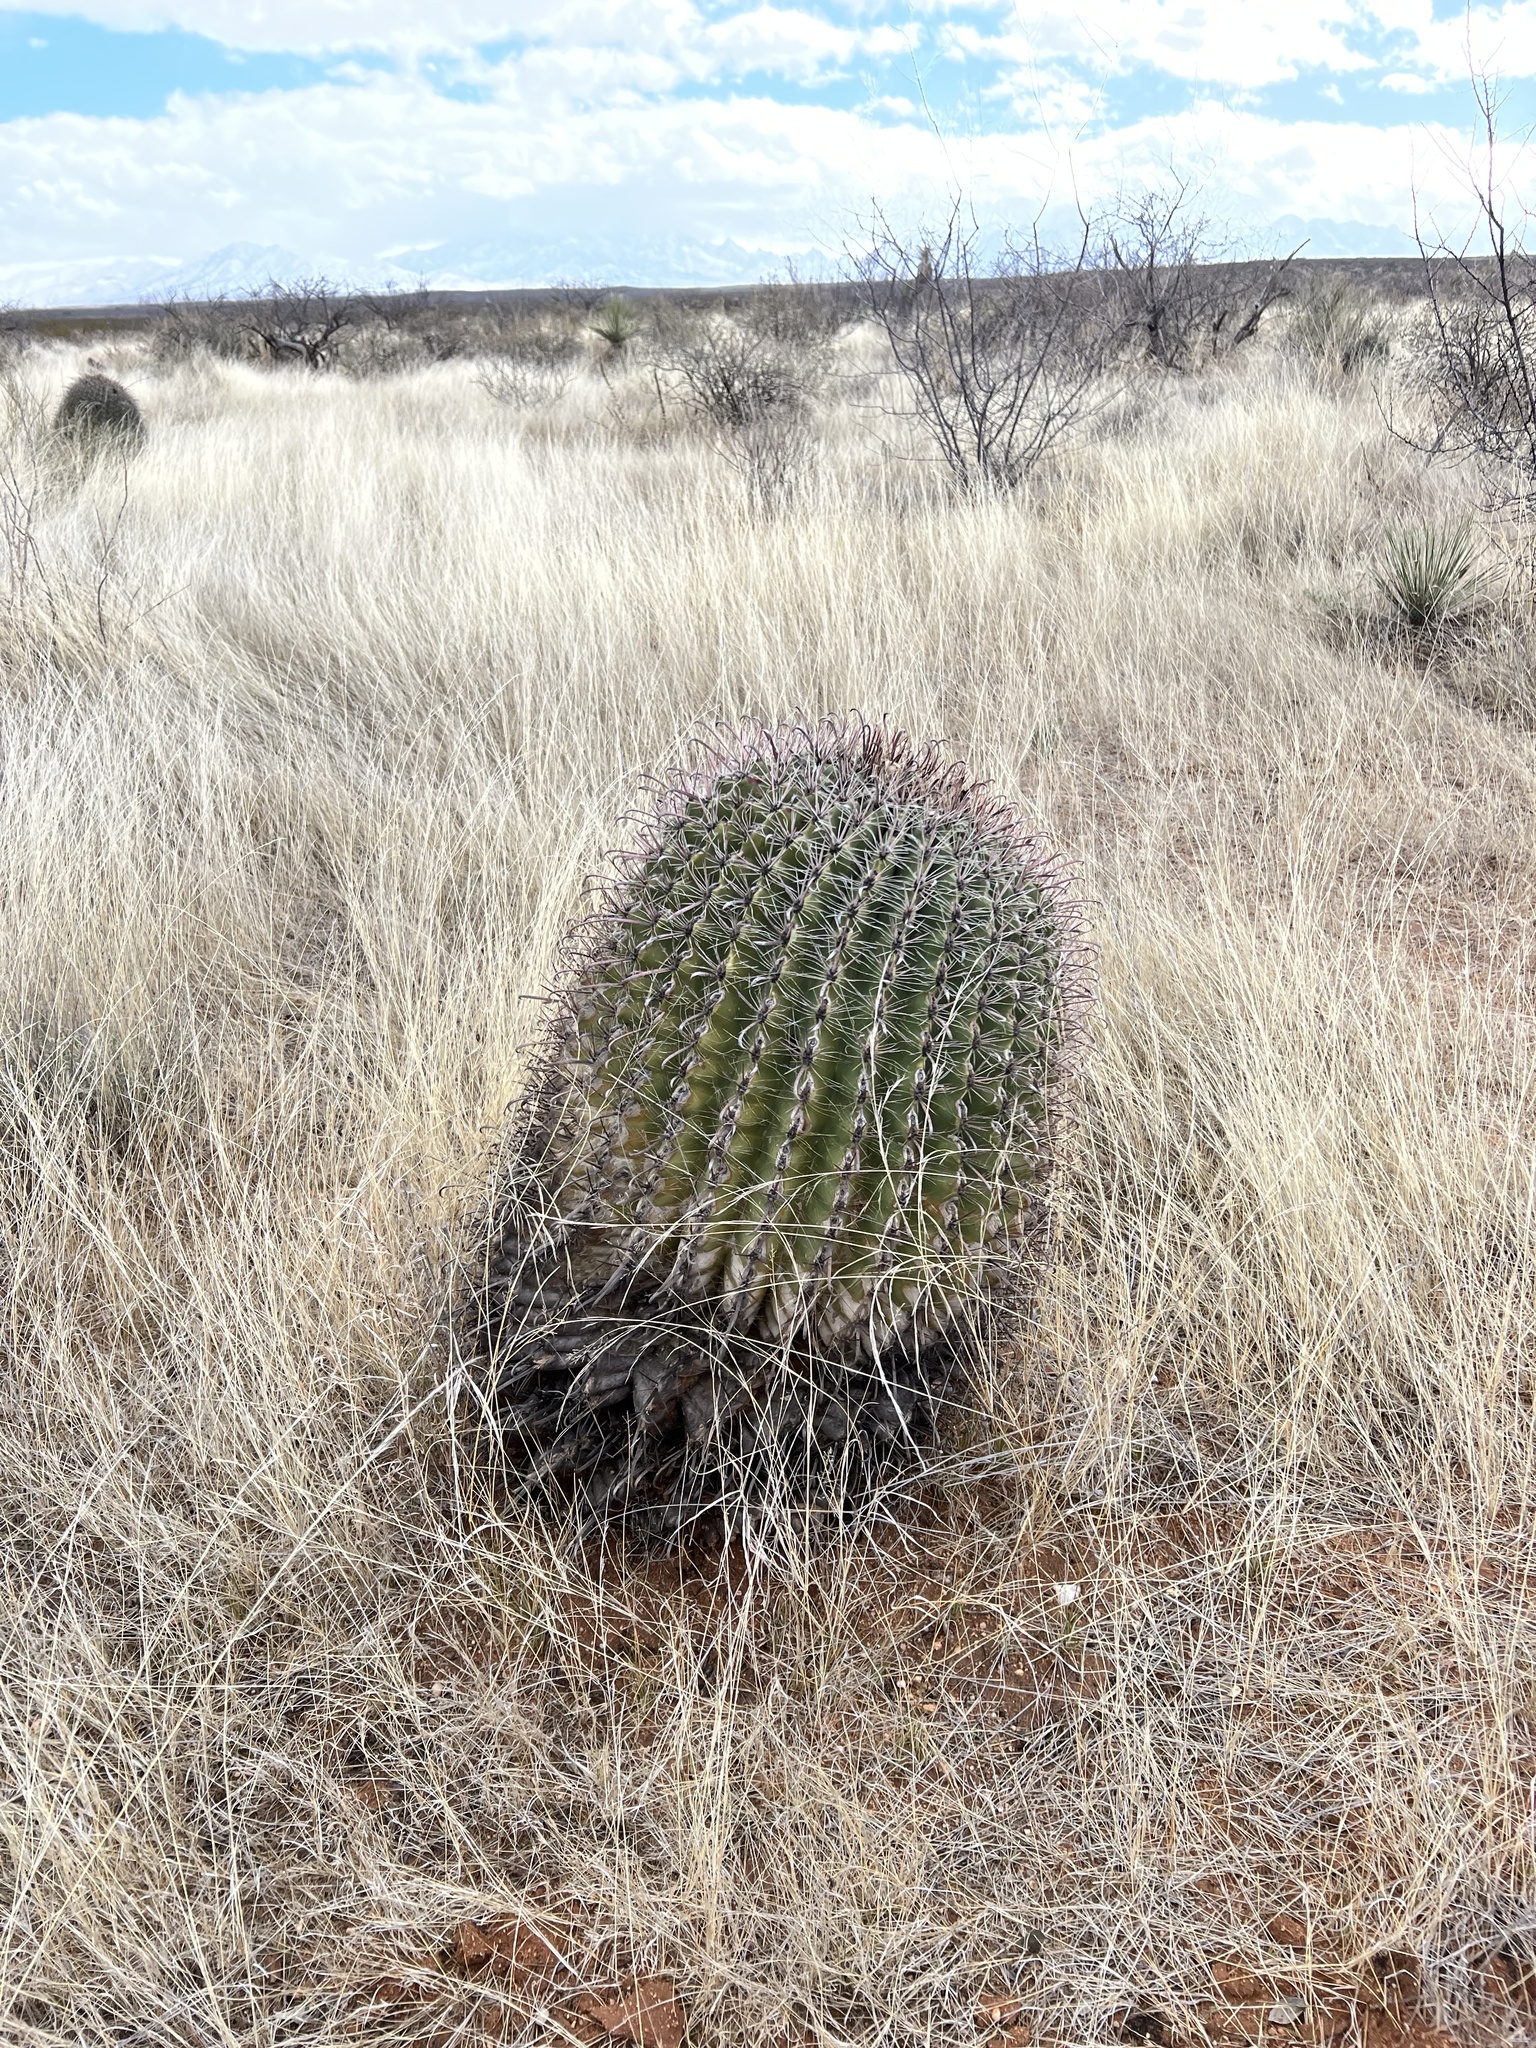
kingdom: Plantae
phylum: Tracheophyta
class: Magnoliopsida
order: Caryophyllales
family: Cactaceae
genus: Ferocactus
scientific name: Ferocactus wislizeni
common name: Candy barrel cactus
